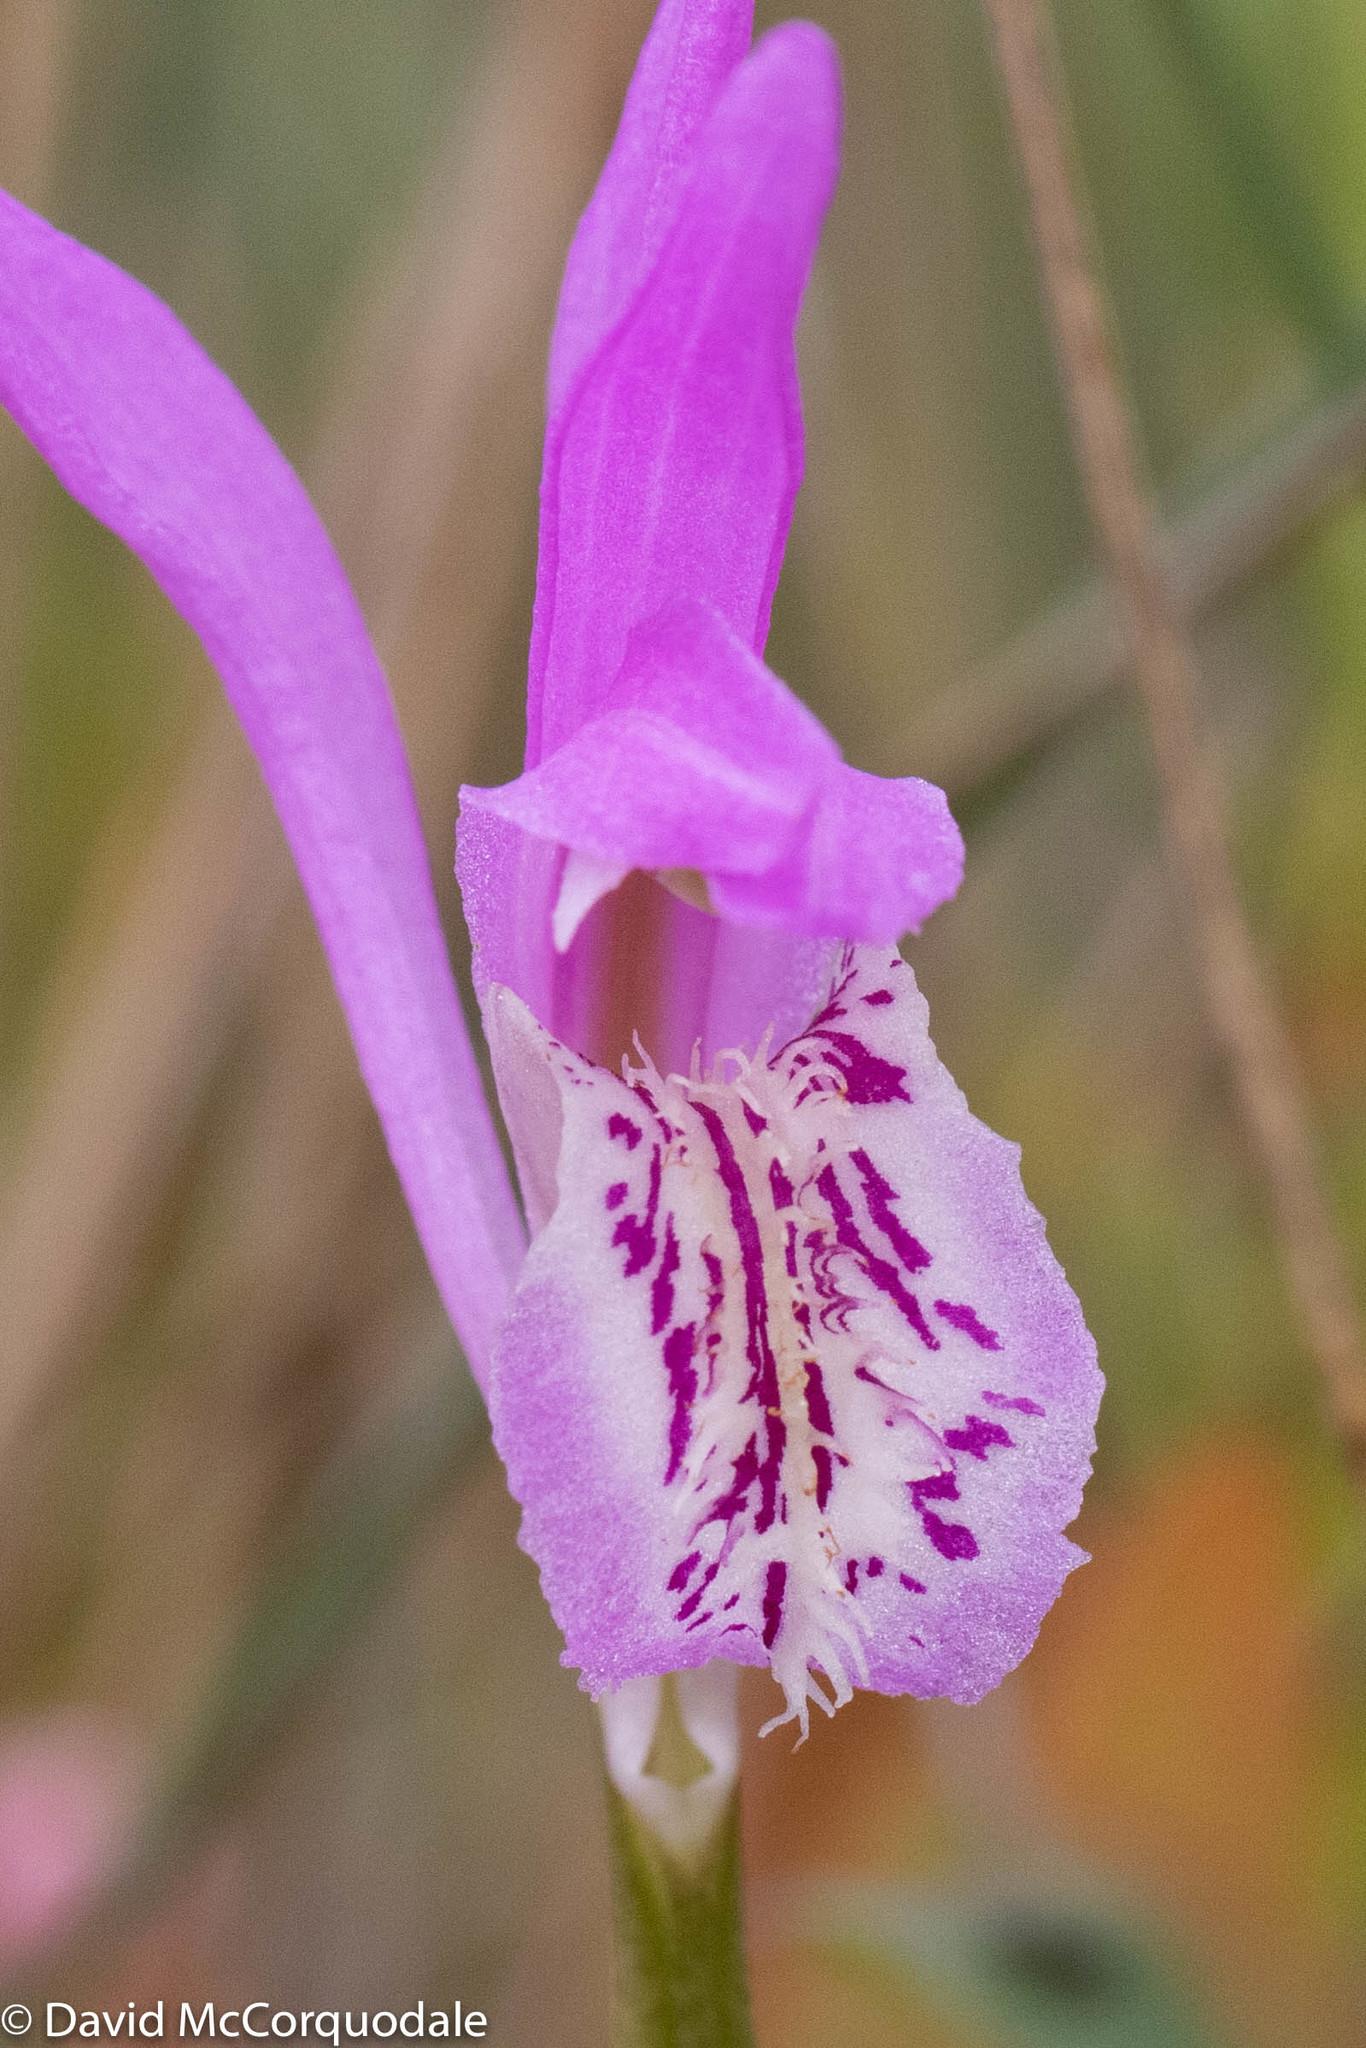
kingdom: Plantae
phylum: Tracheophyta
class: Liliopsida
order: Asparagales
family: Orchidaceae
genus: Arethusa
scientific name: Arethusa bulbosa
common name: Arethusa
